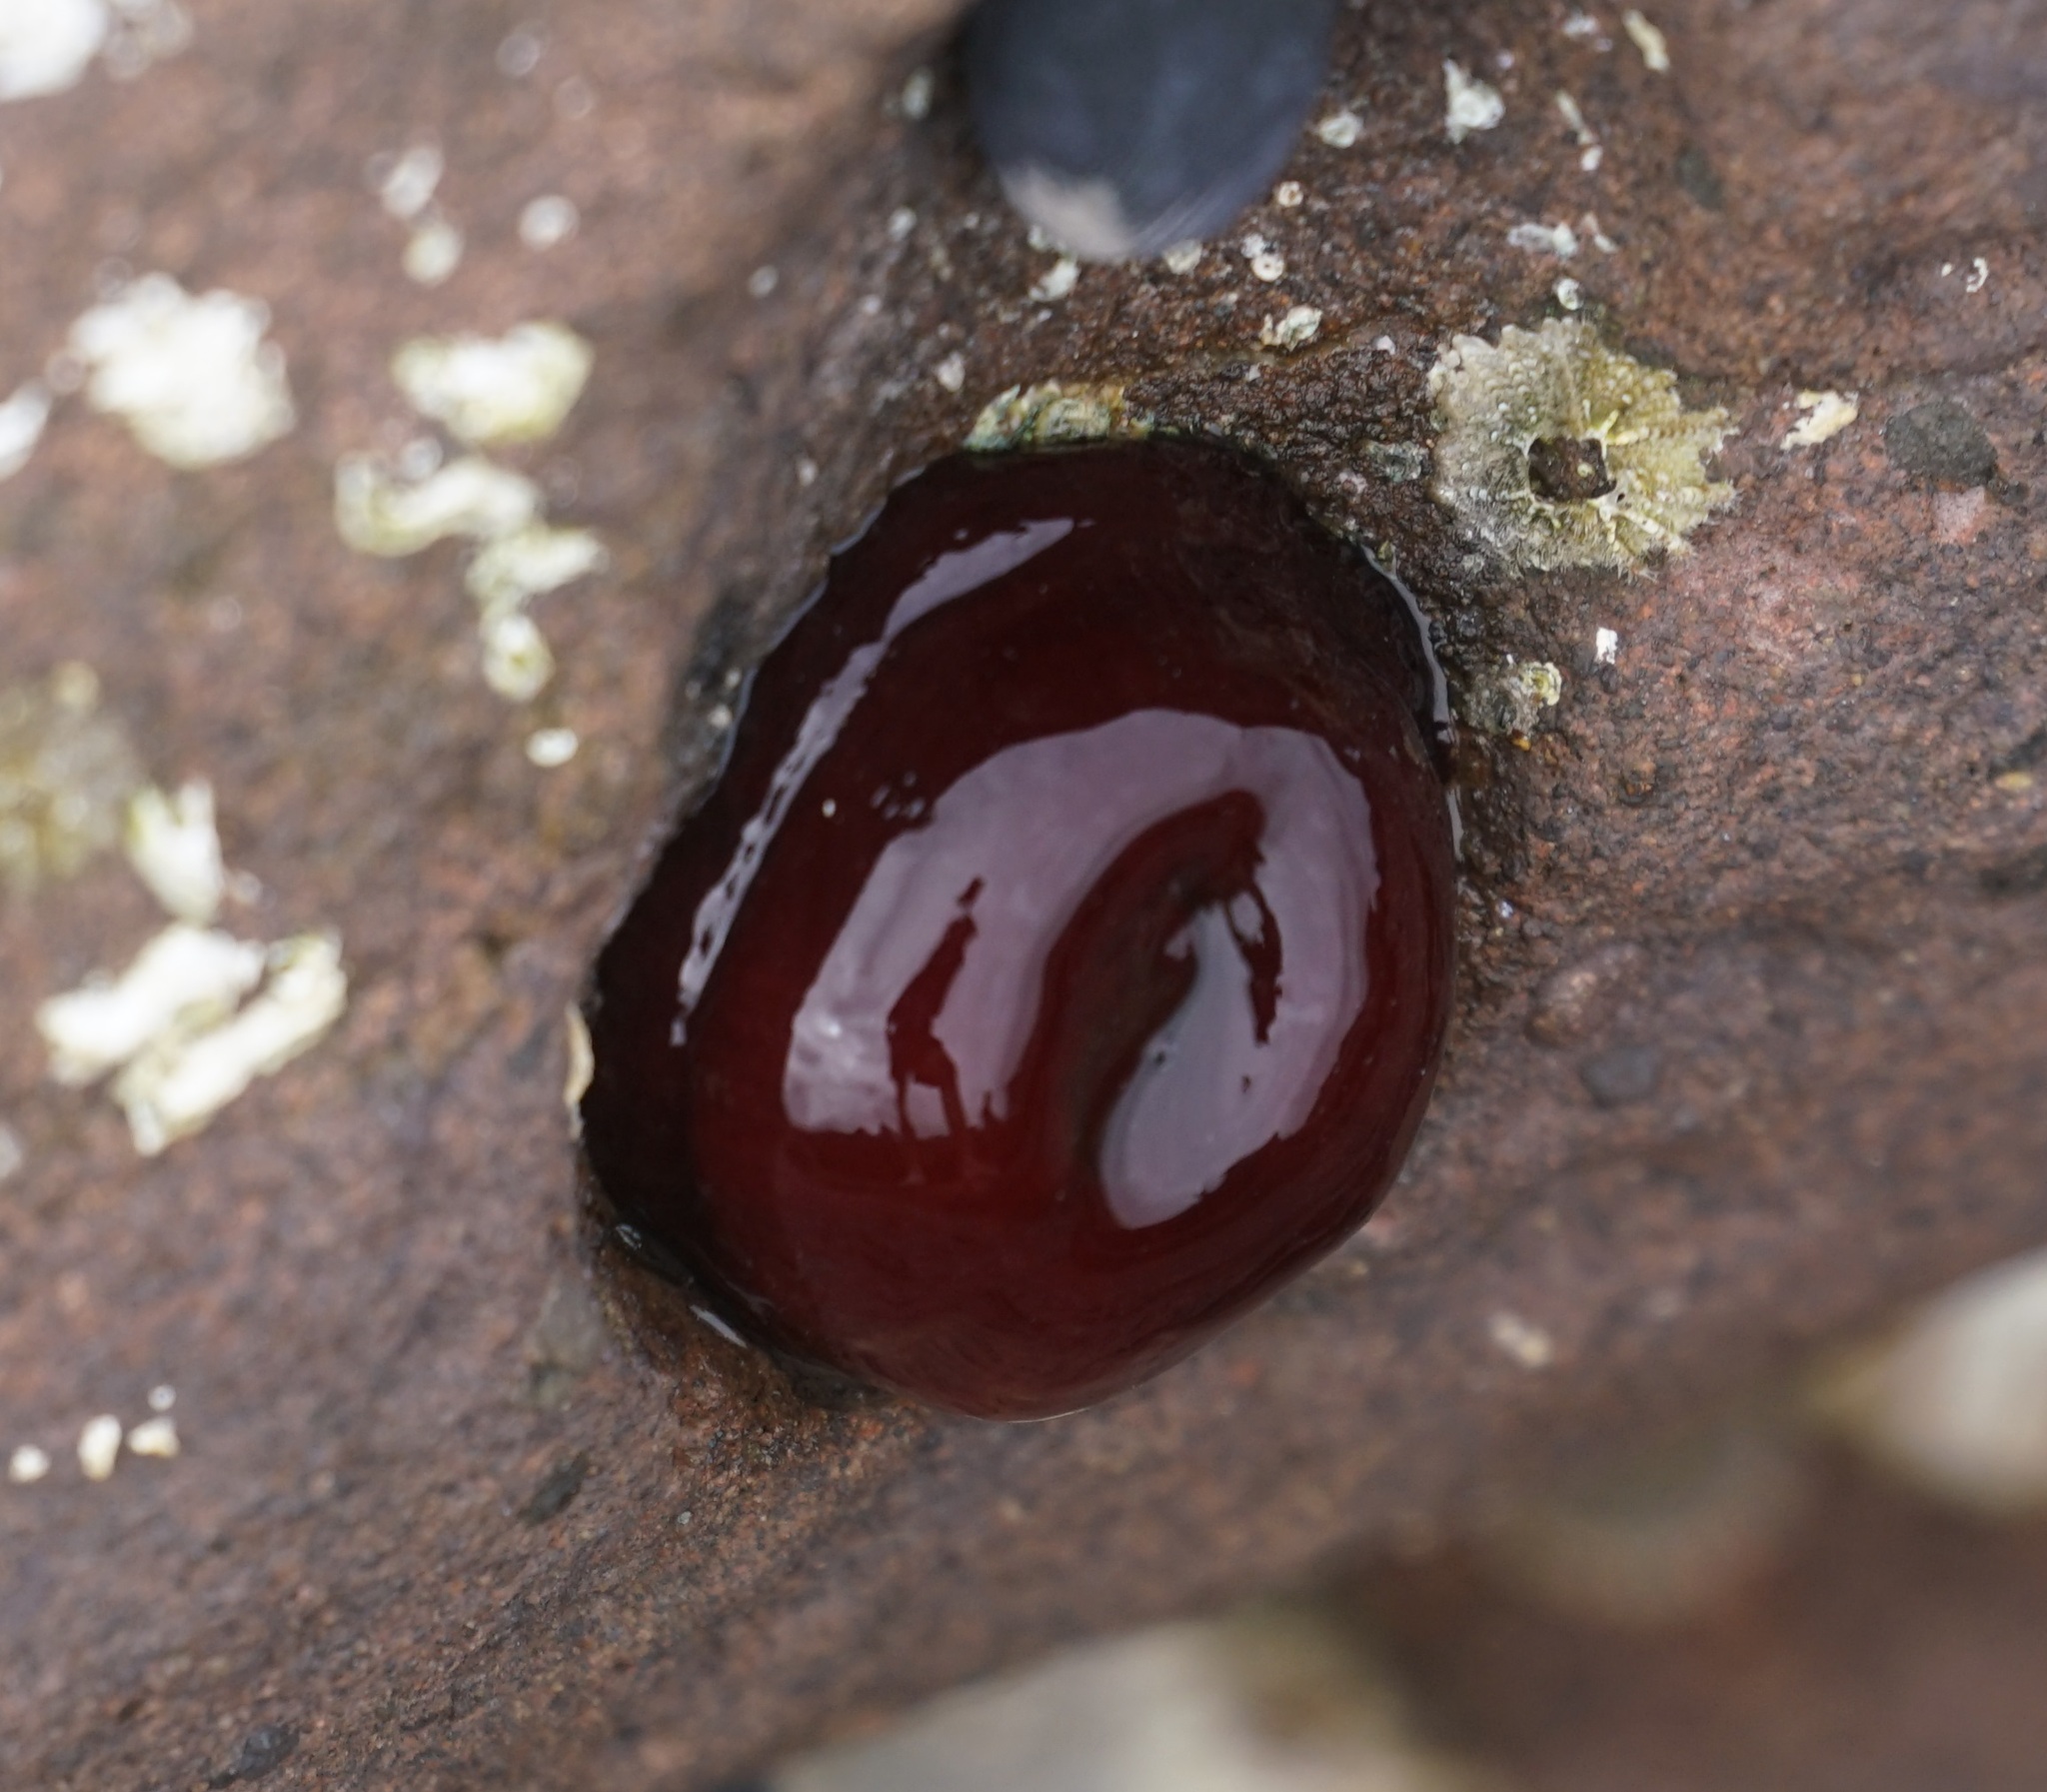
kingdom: Animalia
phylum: Cnidaria
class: Anthozoa
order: Actiniaria
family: Actiniidae
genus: Actinia
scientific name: Actinia tenebrosa
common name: Waratah anemone
